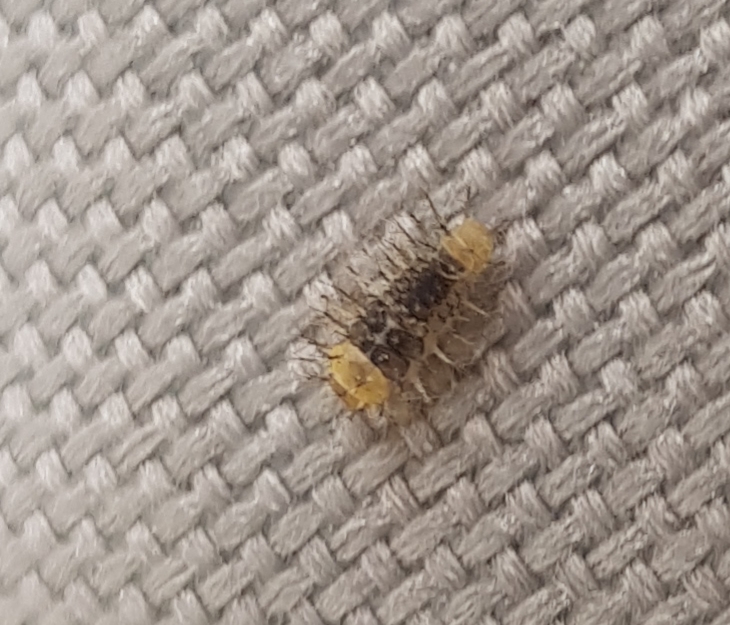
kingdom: Animalia
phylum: Arthropoda
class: Insecta
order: Coleoptera
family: Coccinellidae
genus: Halmus
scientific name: Halmus chalybeus
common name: Steel blue ladybird beetle
